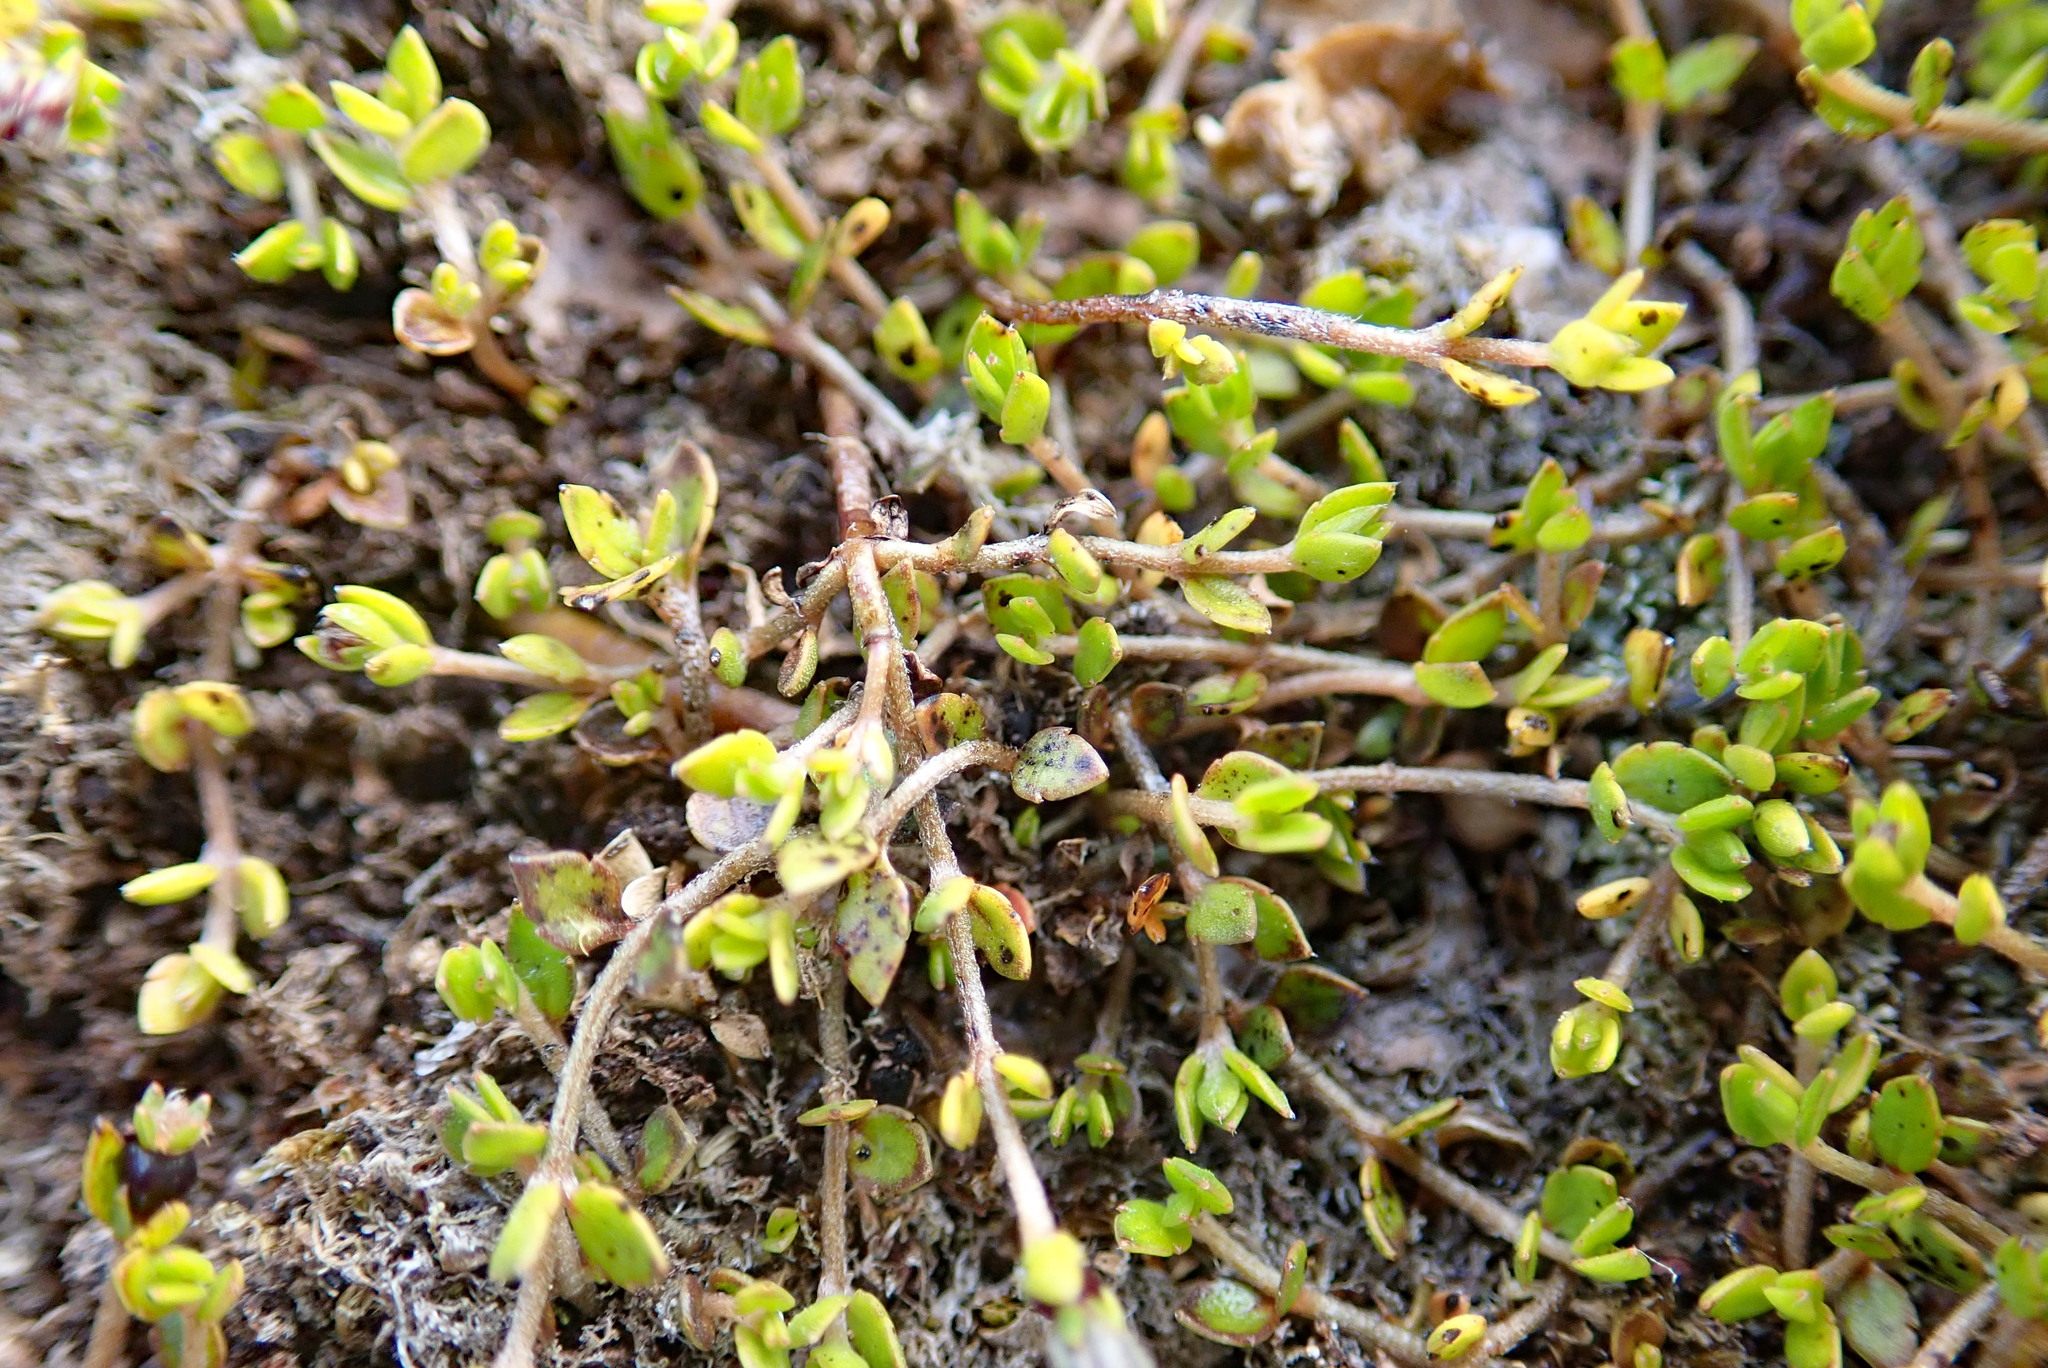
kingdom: Plantae
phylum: Tracheophyta
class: Magnoliopsida
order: Saxifragales
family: Haloragaceae
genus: Gonocarpus
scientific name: Gonocarpus micranthus
